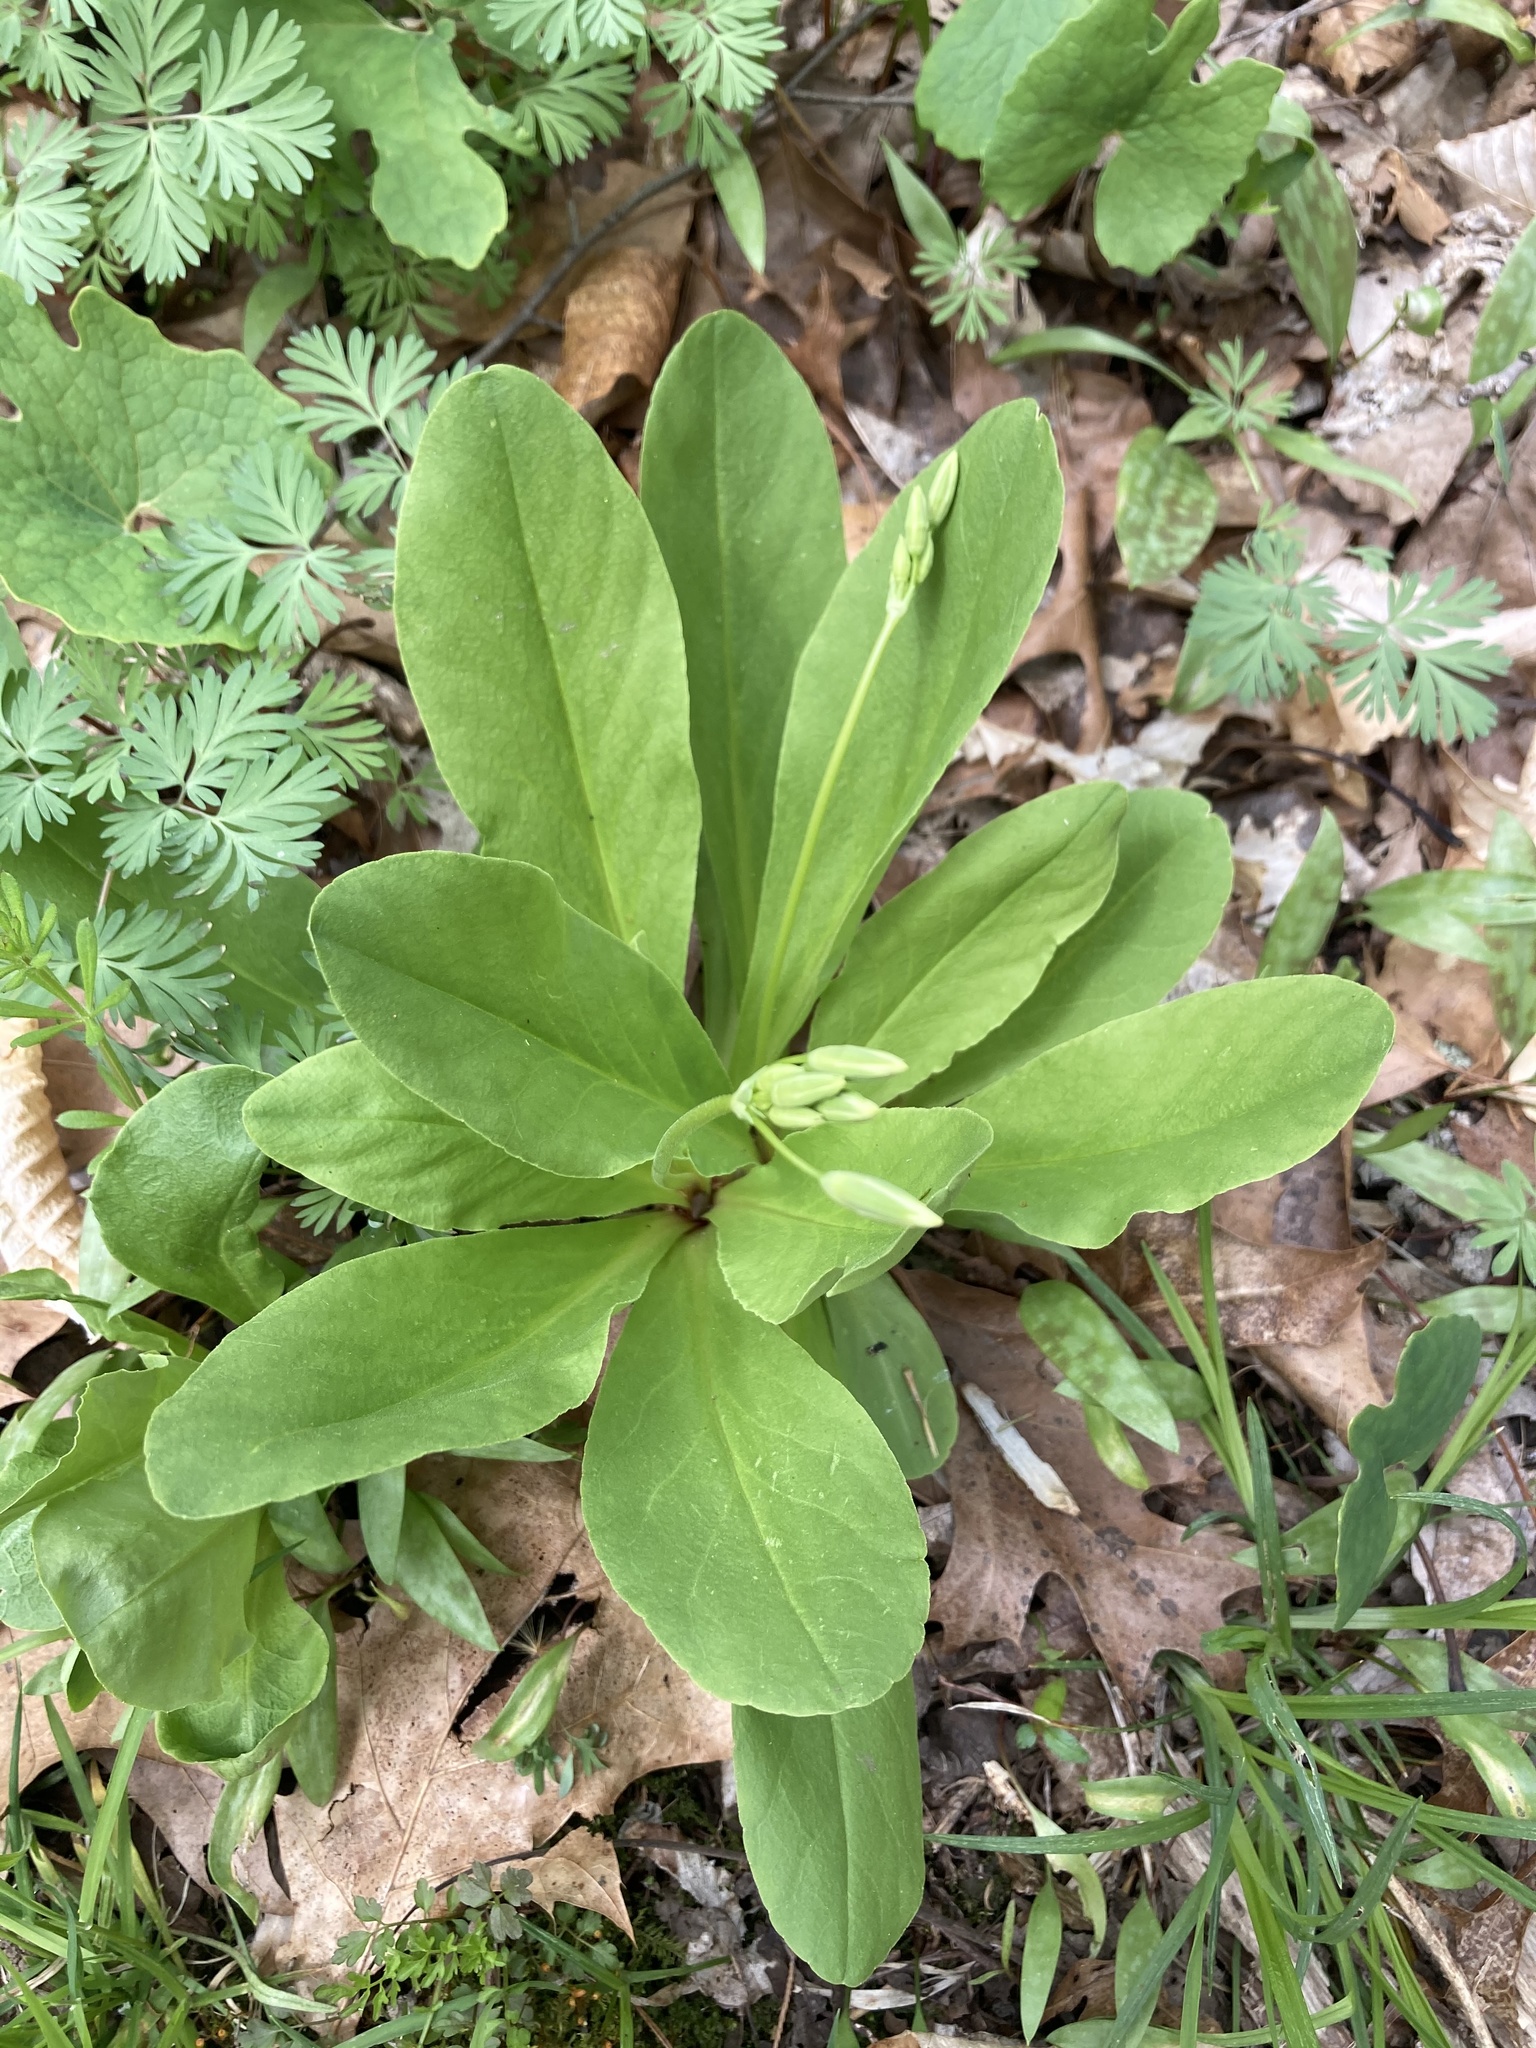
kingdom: Plantae
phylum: Tracheophyta
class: Magnoliopsida
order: Ericales
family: Primulaceae
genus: Dodecatheon
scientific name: Dodecatheon meadia
